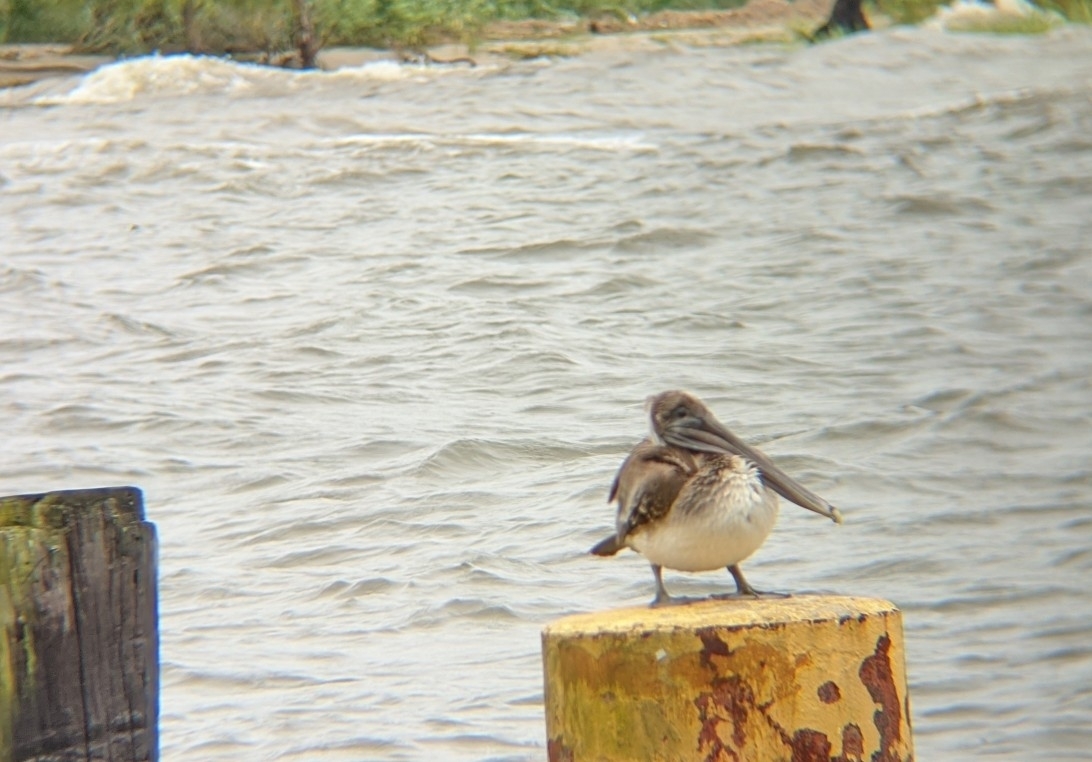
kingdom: Animalia
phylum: Chordata
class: Aves
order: Pelecaniformes
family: Pelecanidae
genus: Pelecanus
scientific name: Pelecanus occidentalis
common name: Brown pelican
